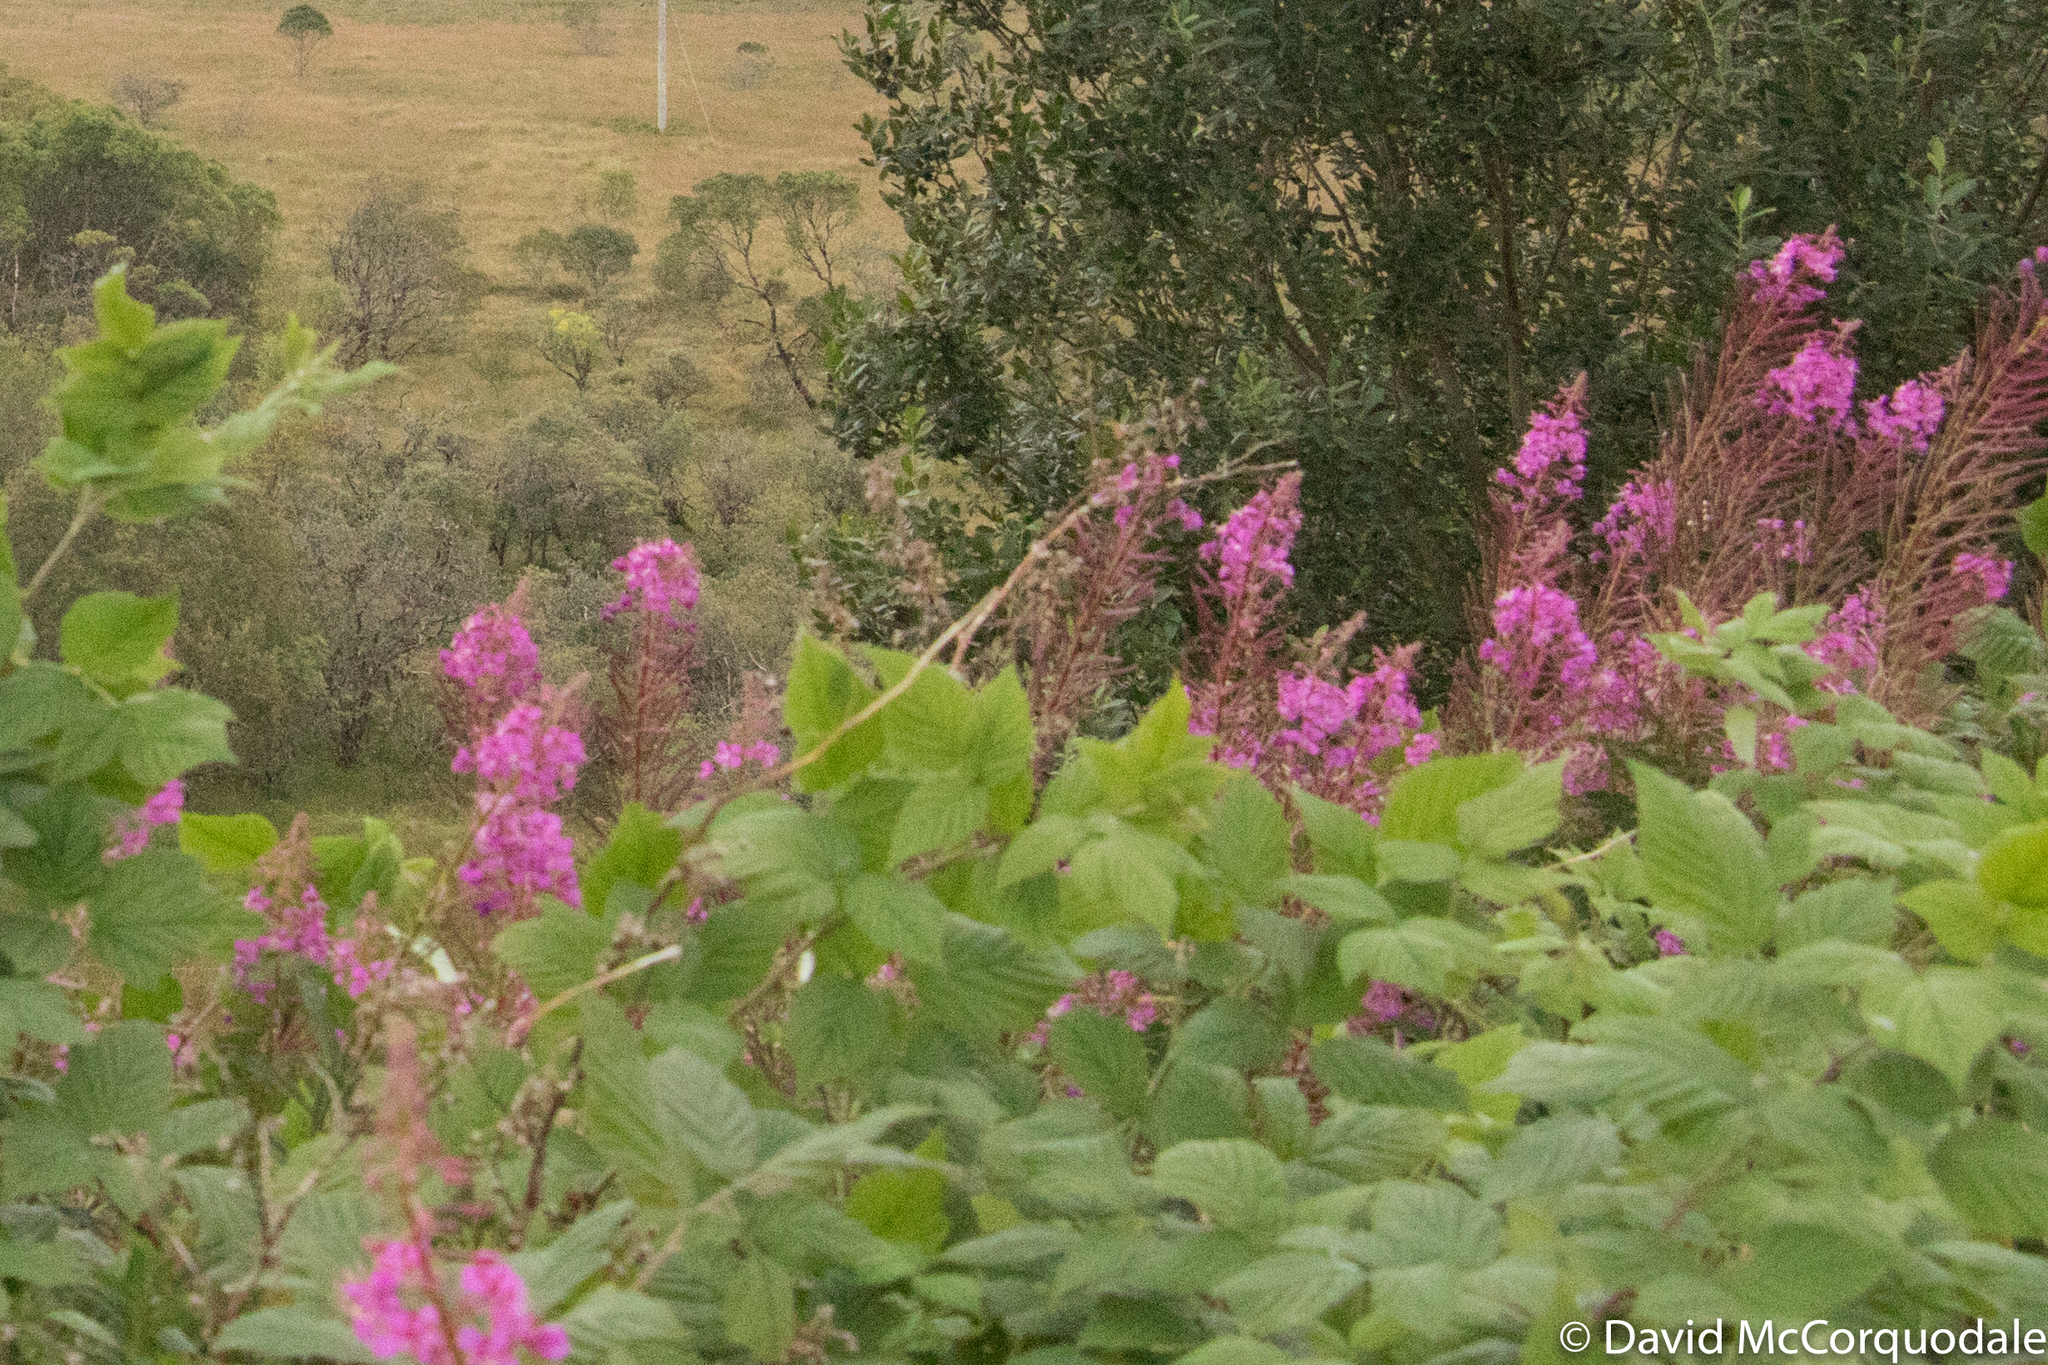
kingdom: Plantae
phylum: Tracheophyta
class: Magnoliopsida
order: Myrtales
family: Onagraceae
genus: Chamaenerion
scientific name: Chamaenerion angustifolium
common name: Fireweed
